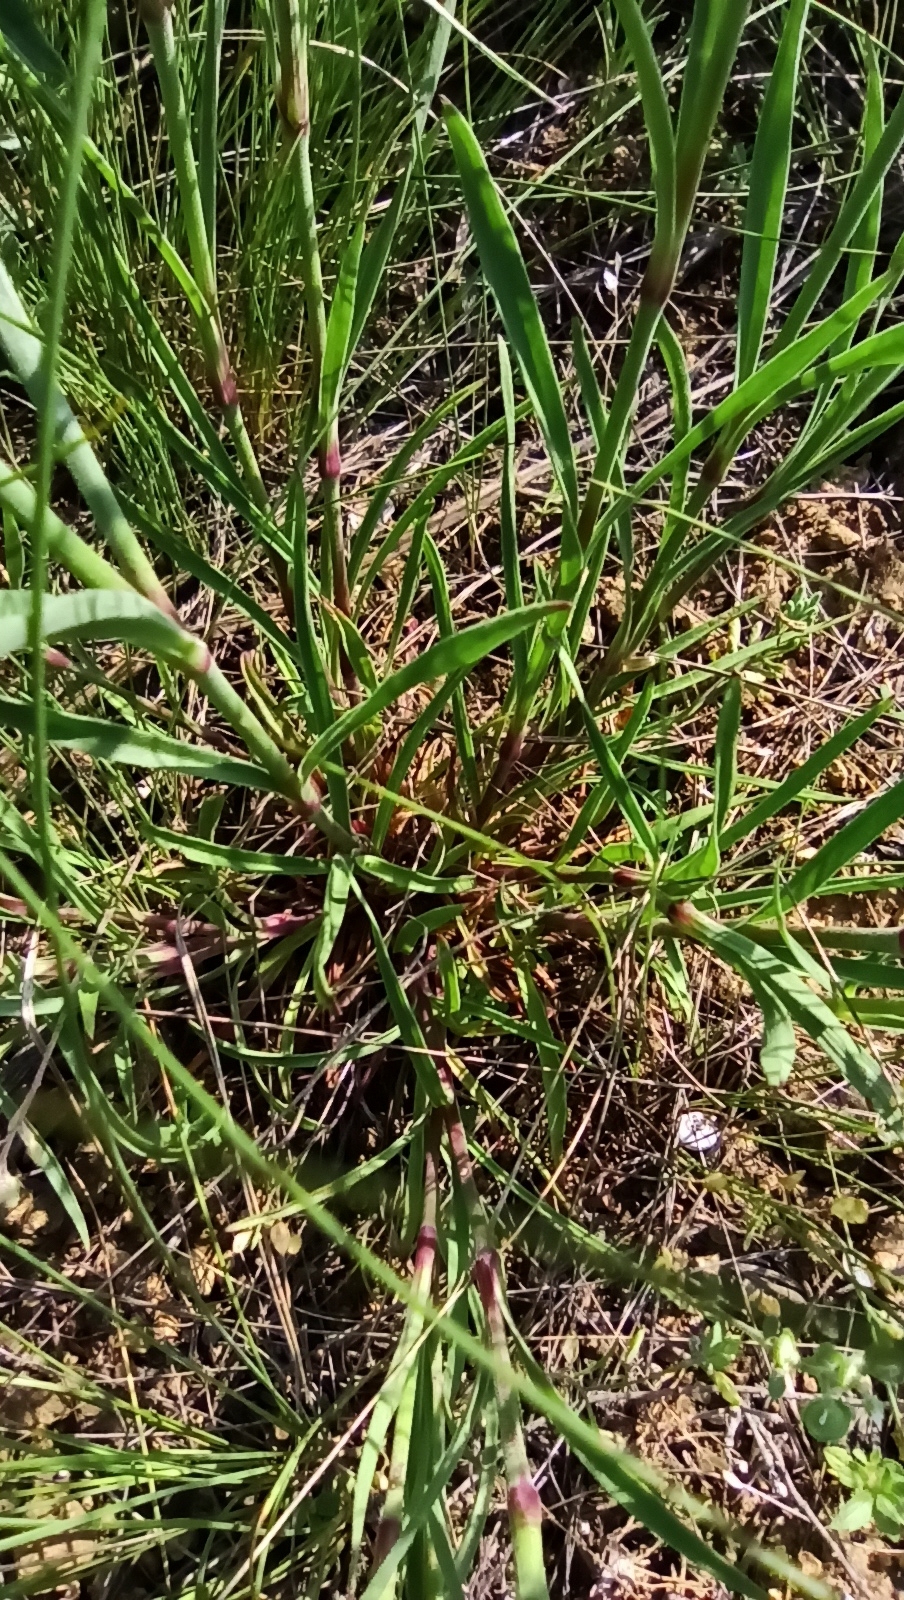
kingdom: Plantae
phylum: Tracheophyta
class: Magnoliopsida
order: Caryophyllales
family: Caryophyllaceae
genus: Dianthus
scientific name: Dianthus pseudarmeria
